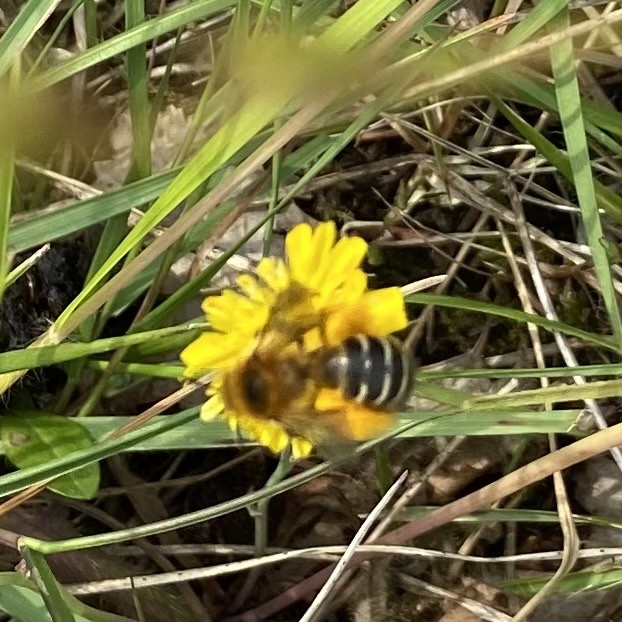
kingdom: Animalia
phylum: Arthropoda
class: Insecta
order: Hymenoptera
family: Melittidae
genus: Dasypoda
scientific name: Dasypoda hirtipes
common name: Pantaloon bee
